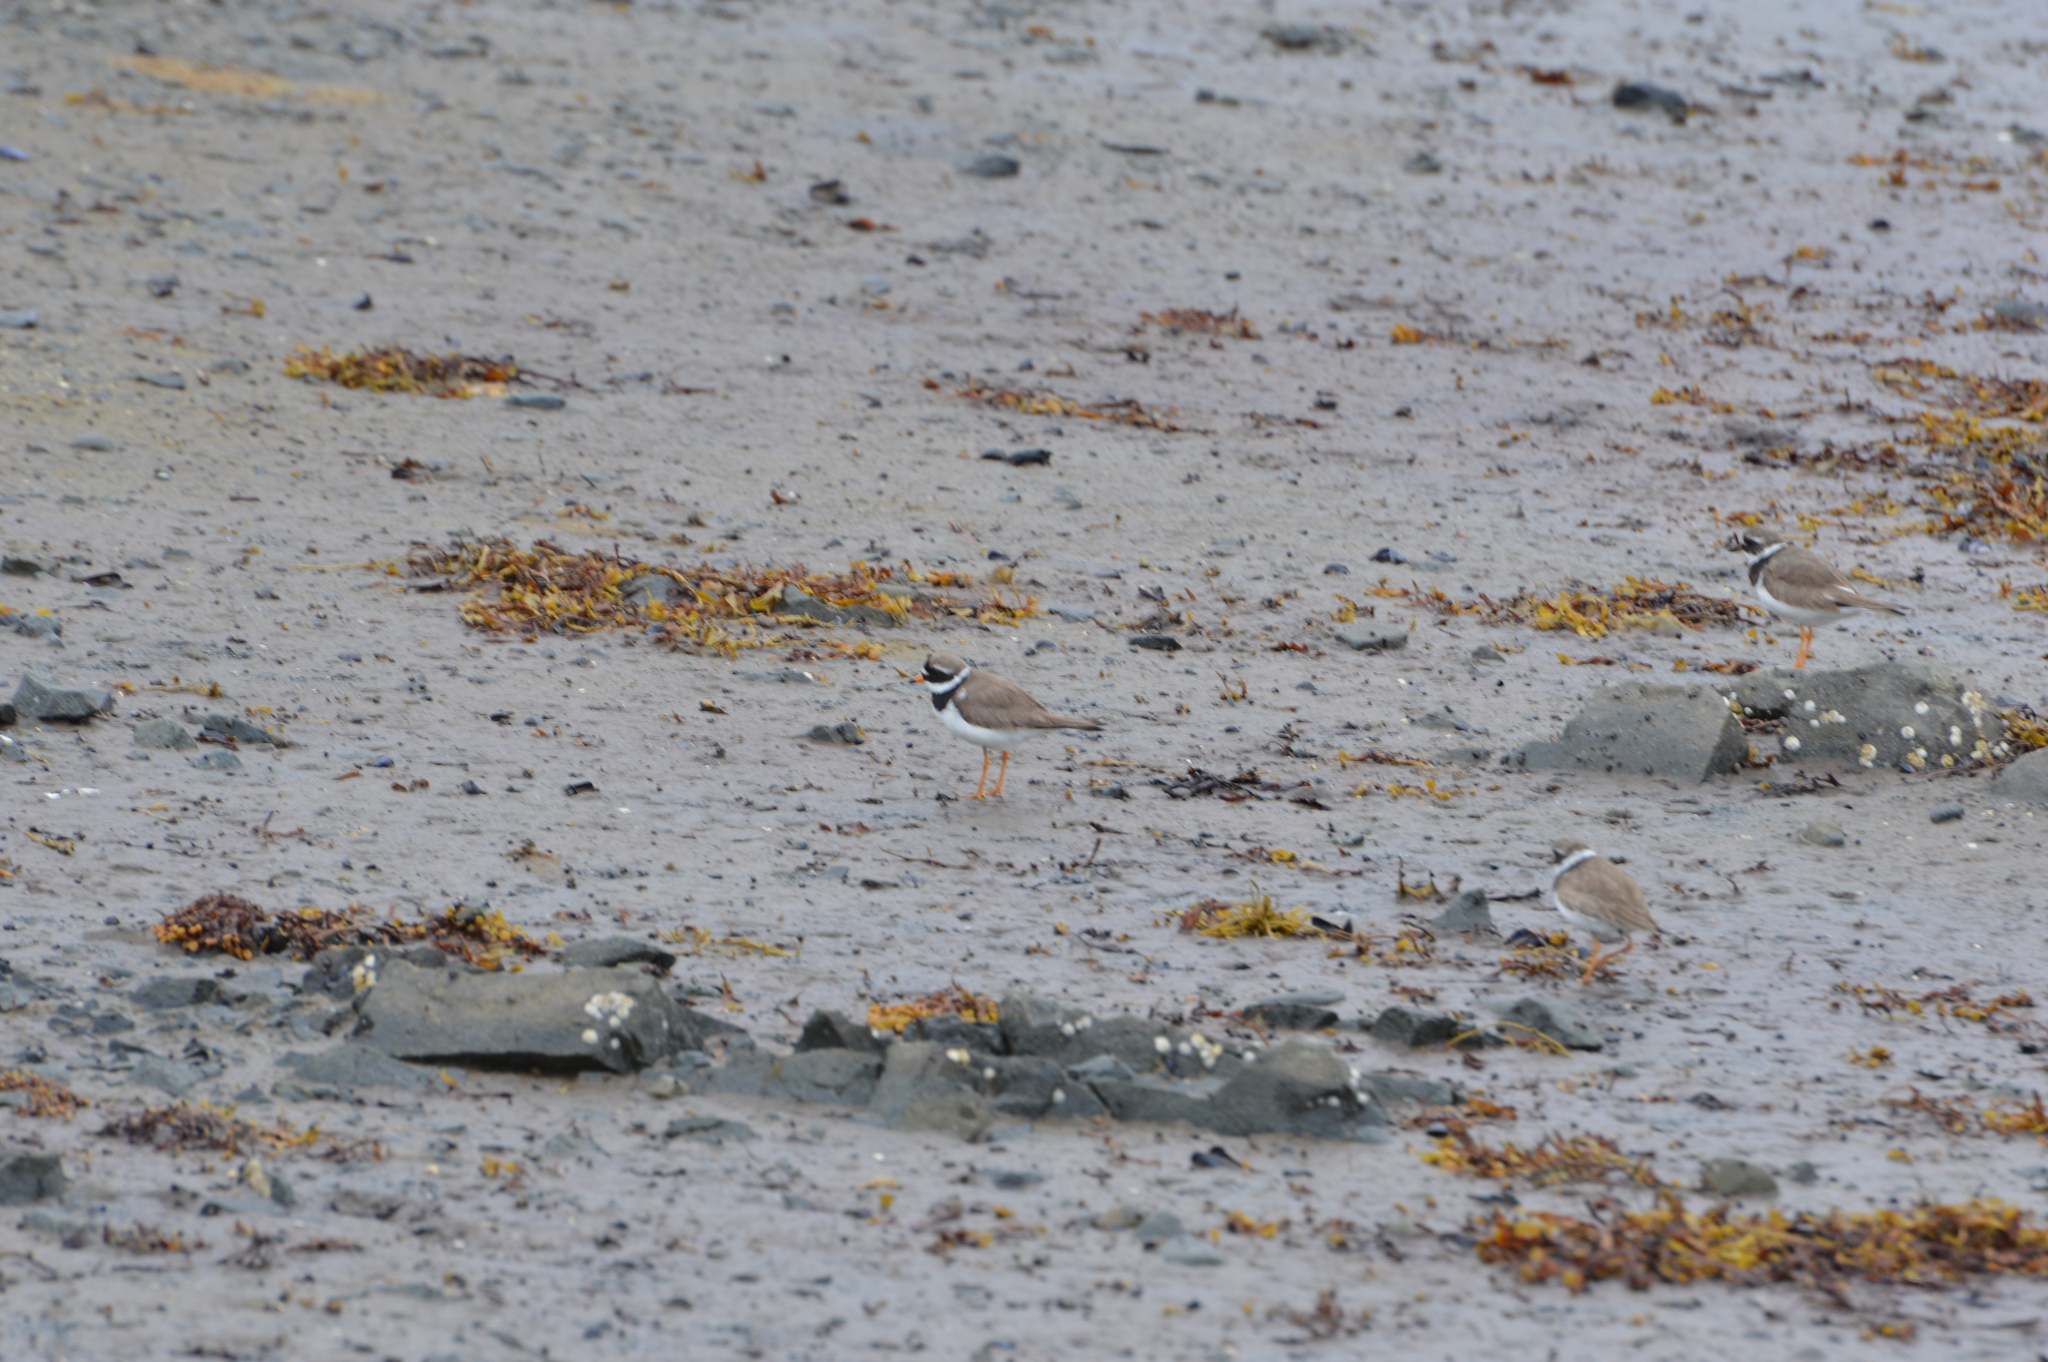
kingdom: Animalia
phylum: Chordata
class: Aves
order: Charadriiformes
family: Charadriidae
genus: Charadrius
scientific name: Charadrius hiaticula
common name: Common ringed plover
